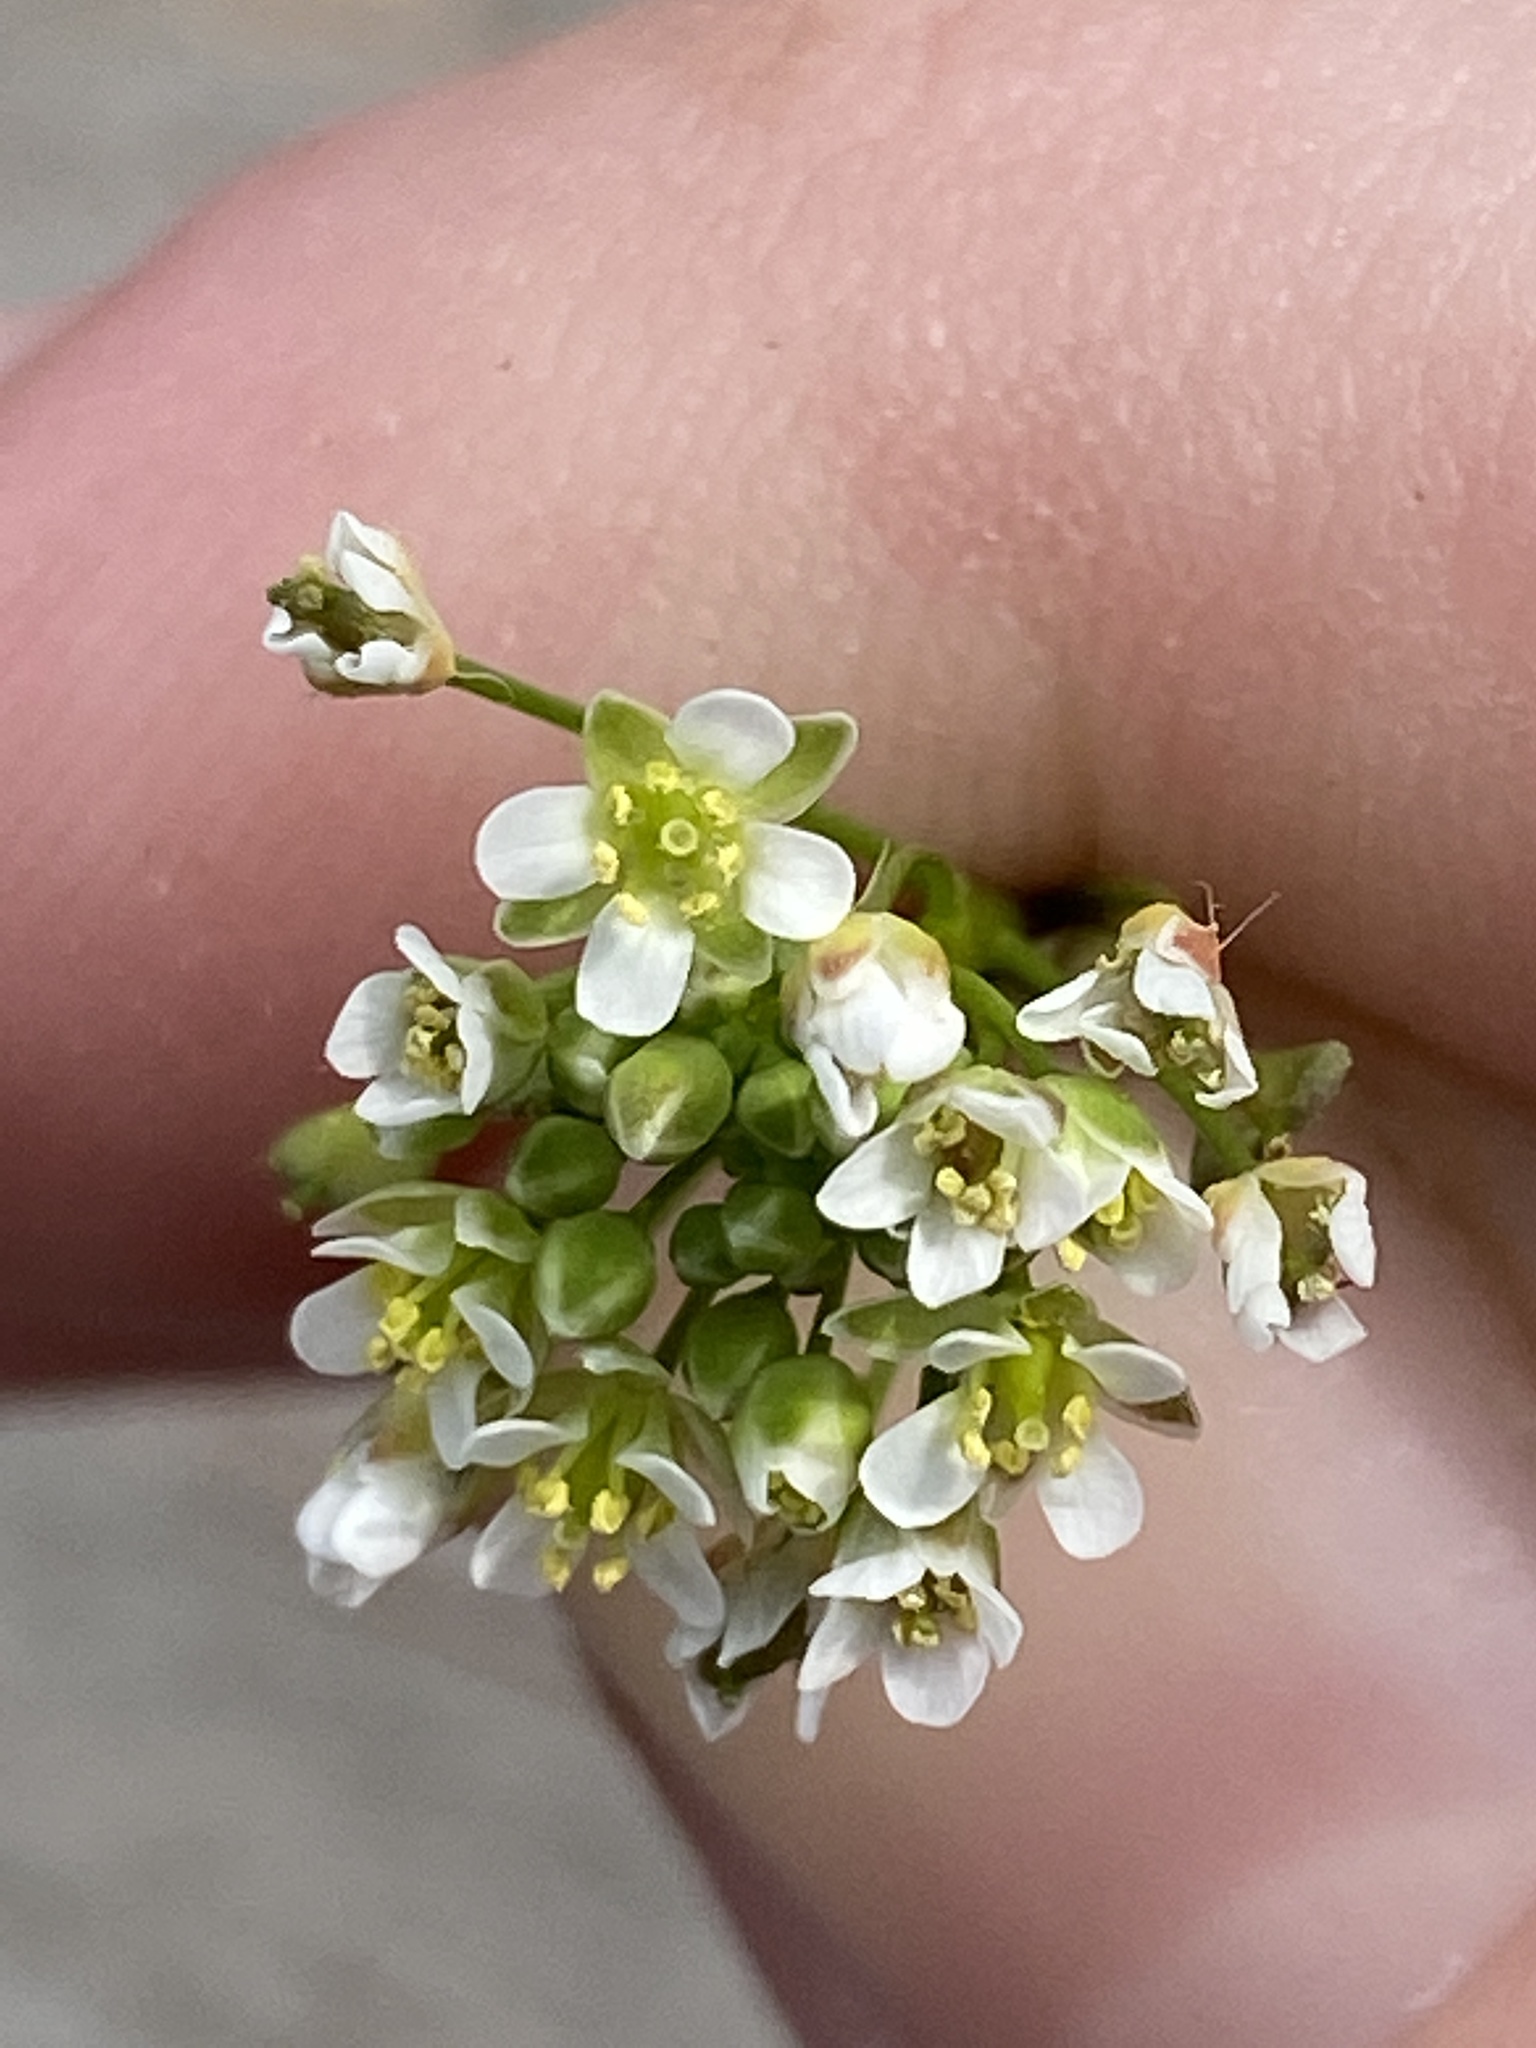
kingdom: Plantae
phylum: Tracheophyta
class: Magnoliopsida
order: Brassicales
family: Brassicaceae
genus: Capsella
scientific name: Capsella bursa-pastoris
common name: Shepherd's purse
